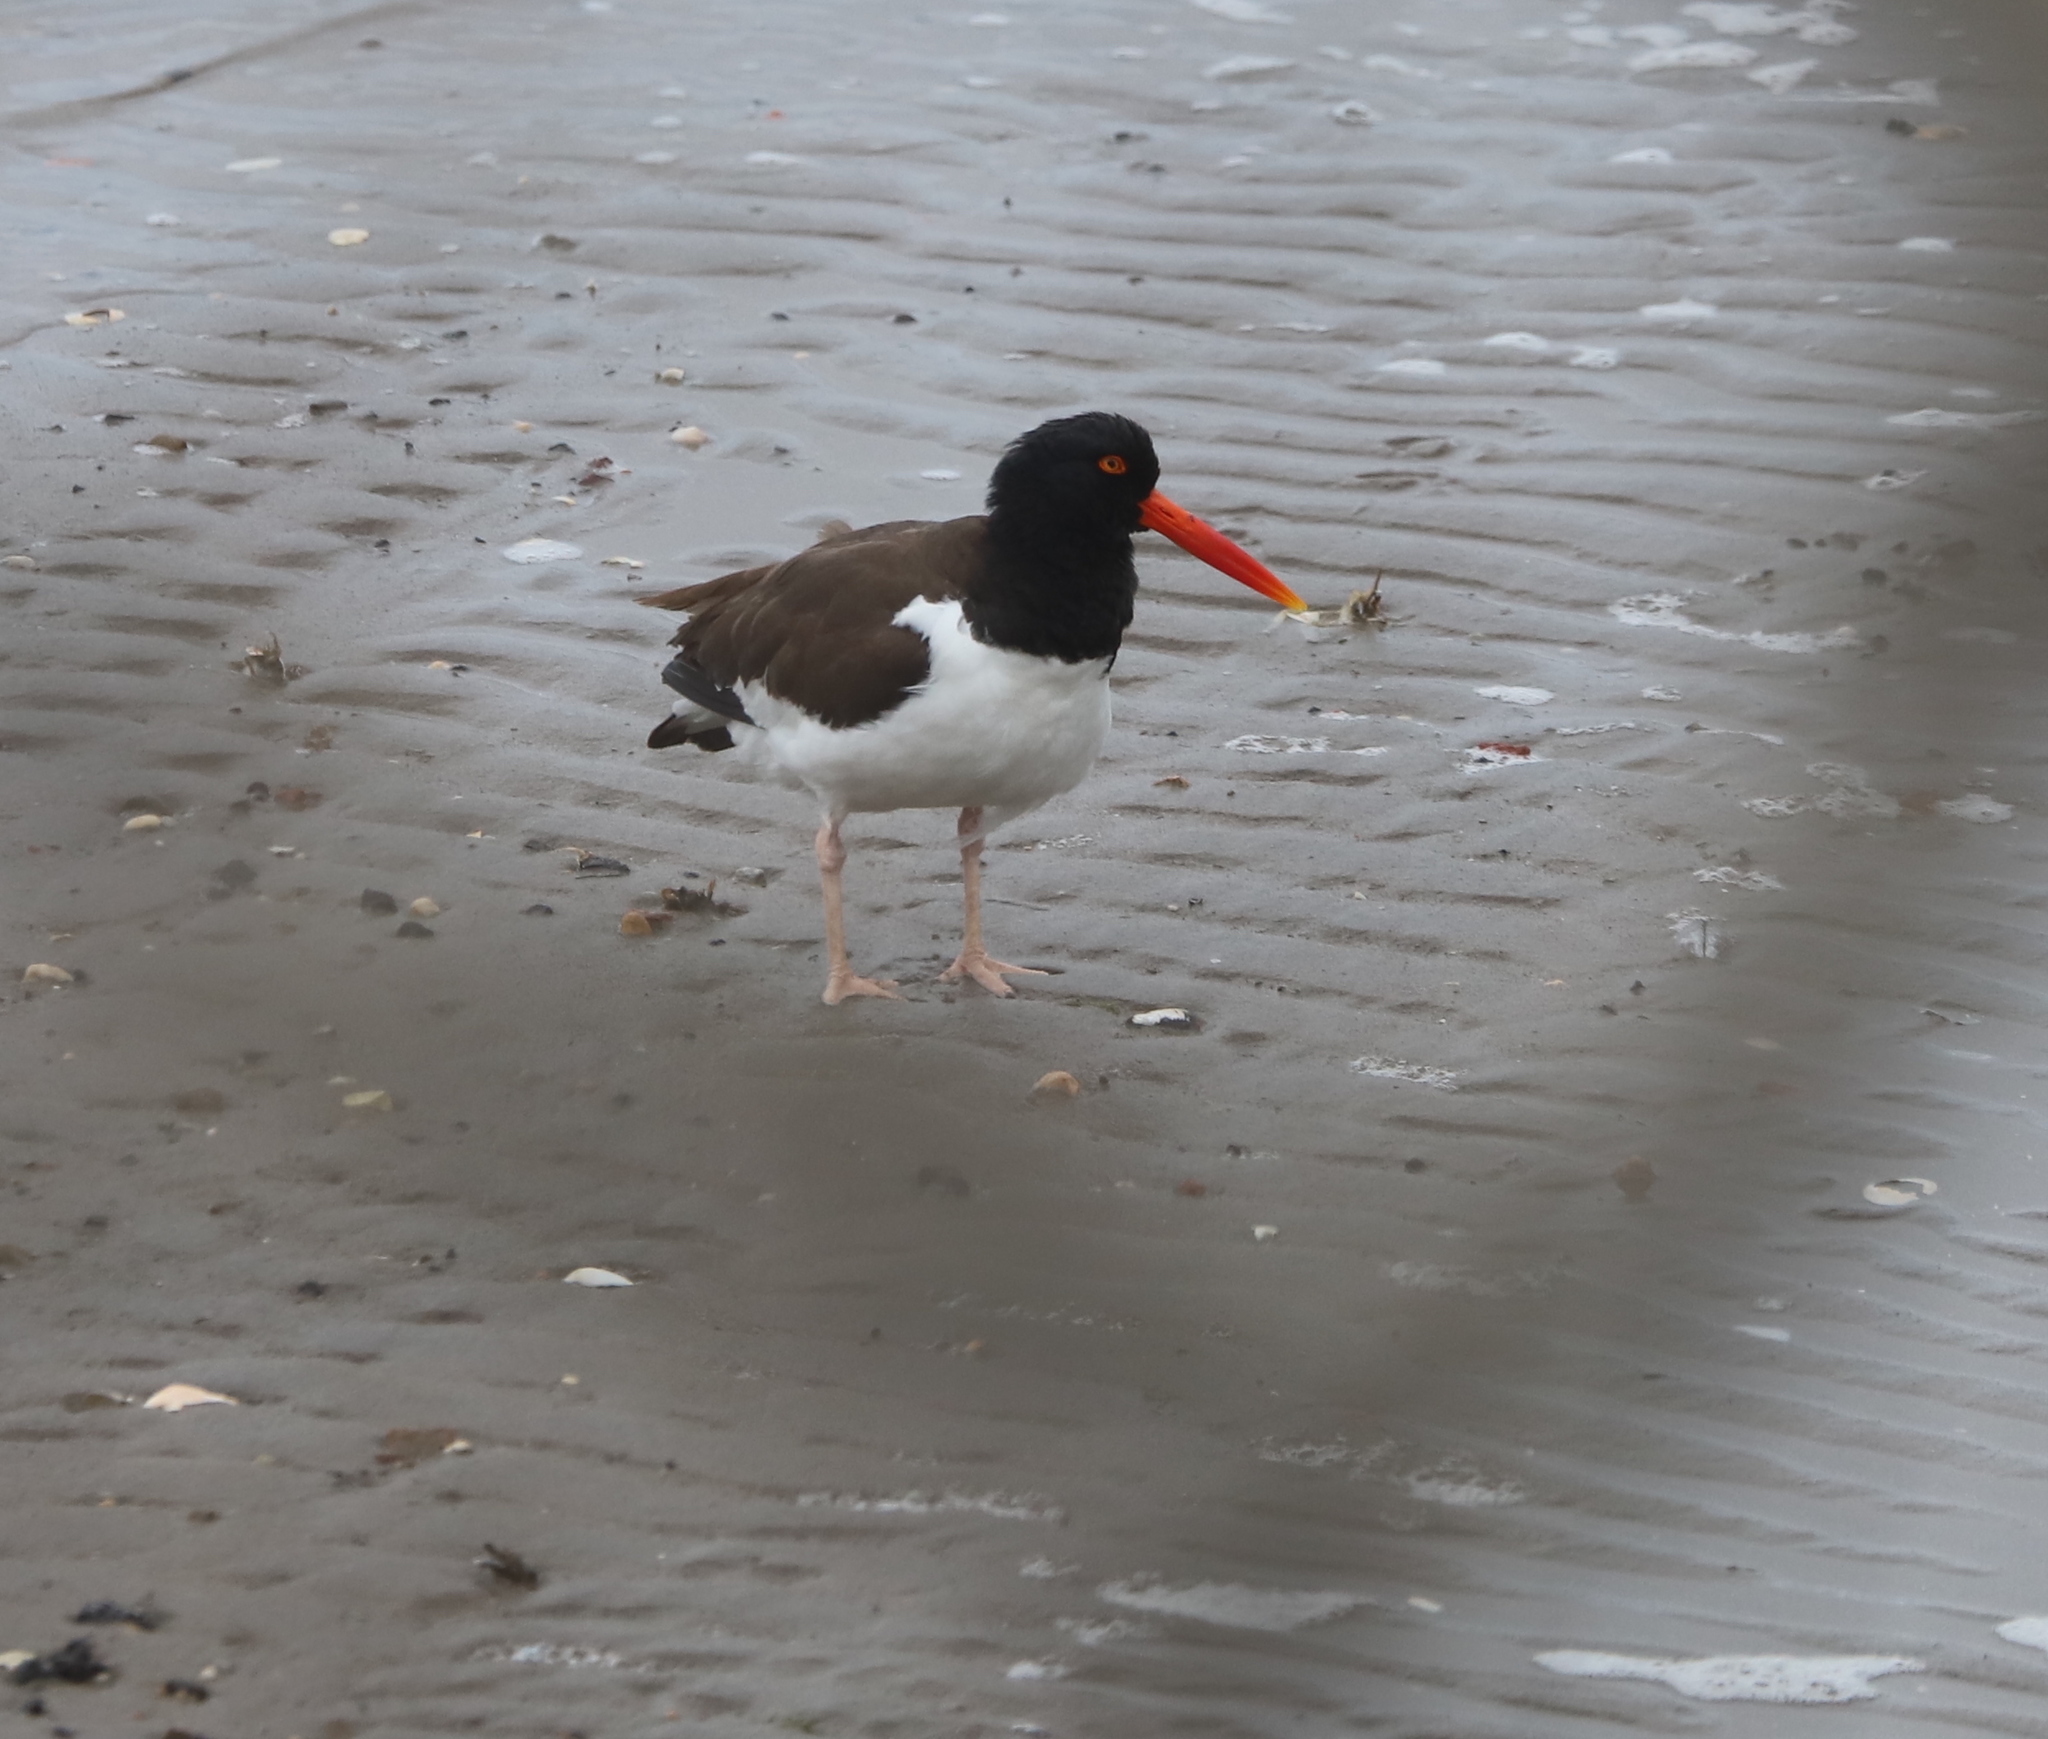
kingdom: Animalia
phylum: Chordata
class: Aves
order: Charadriiformes
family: Haematopodidae
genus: Haematopus
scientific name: Haematopus palliatus
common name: American oystercatcher
